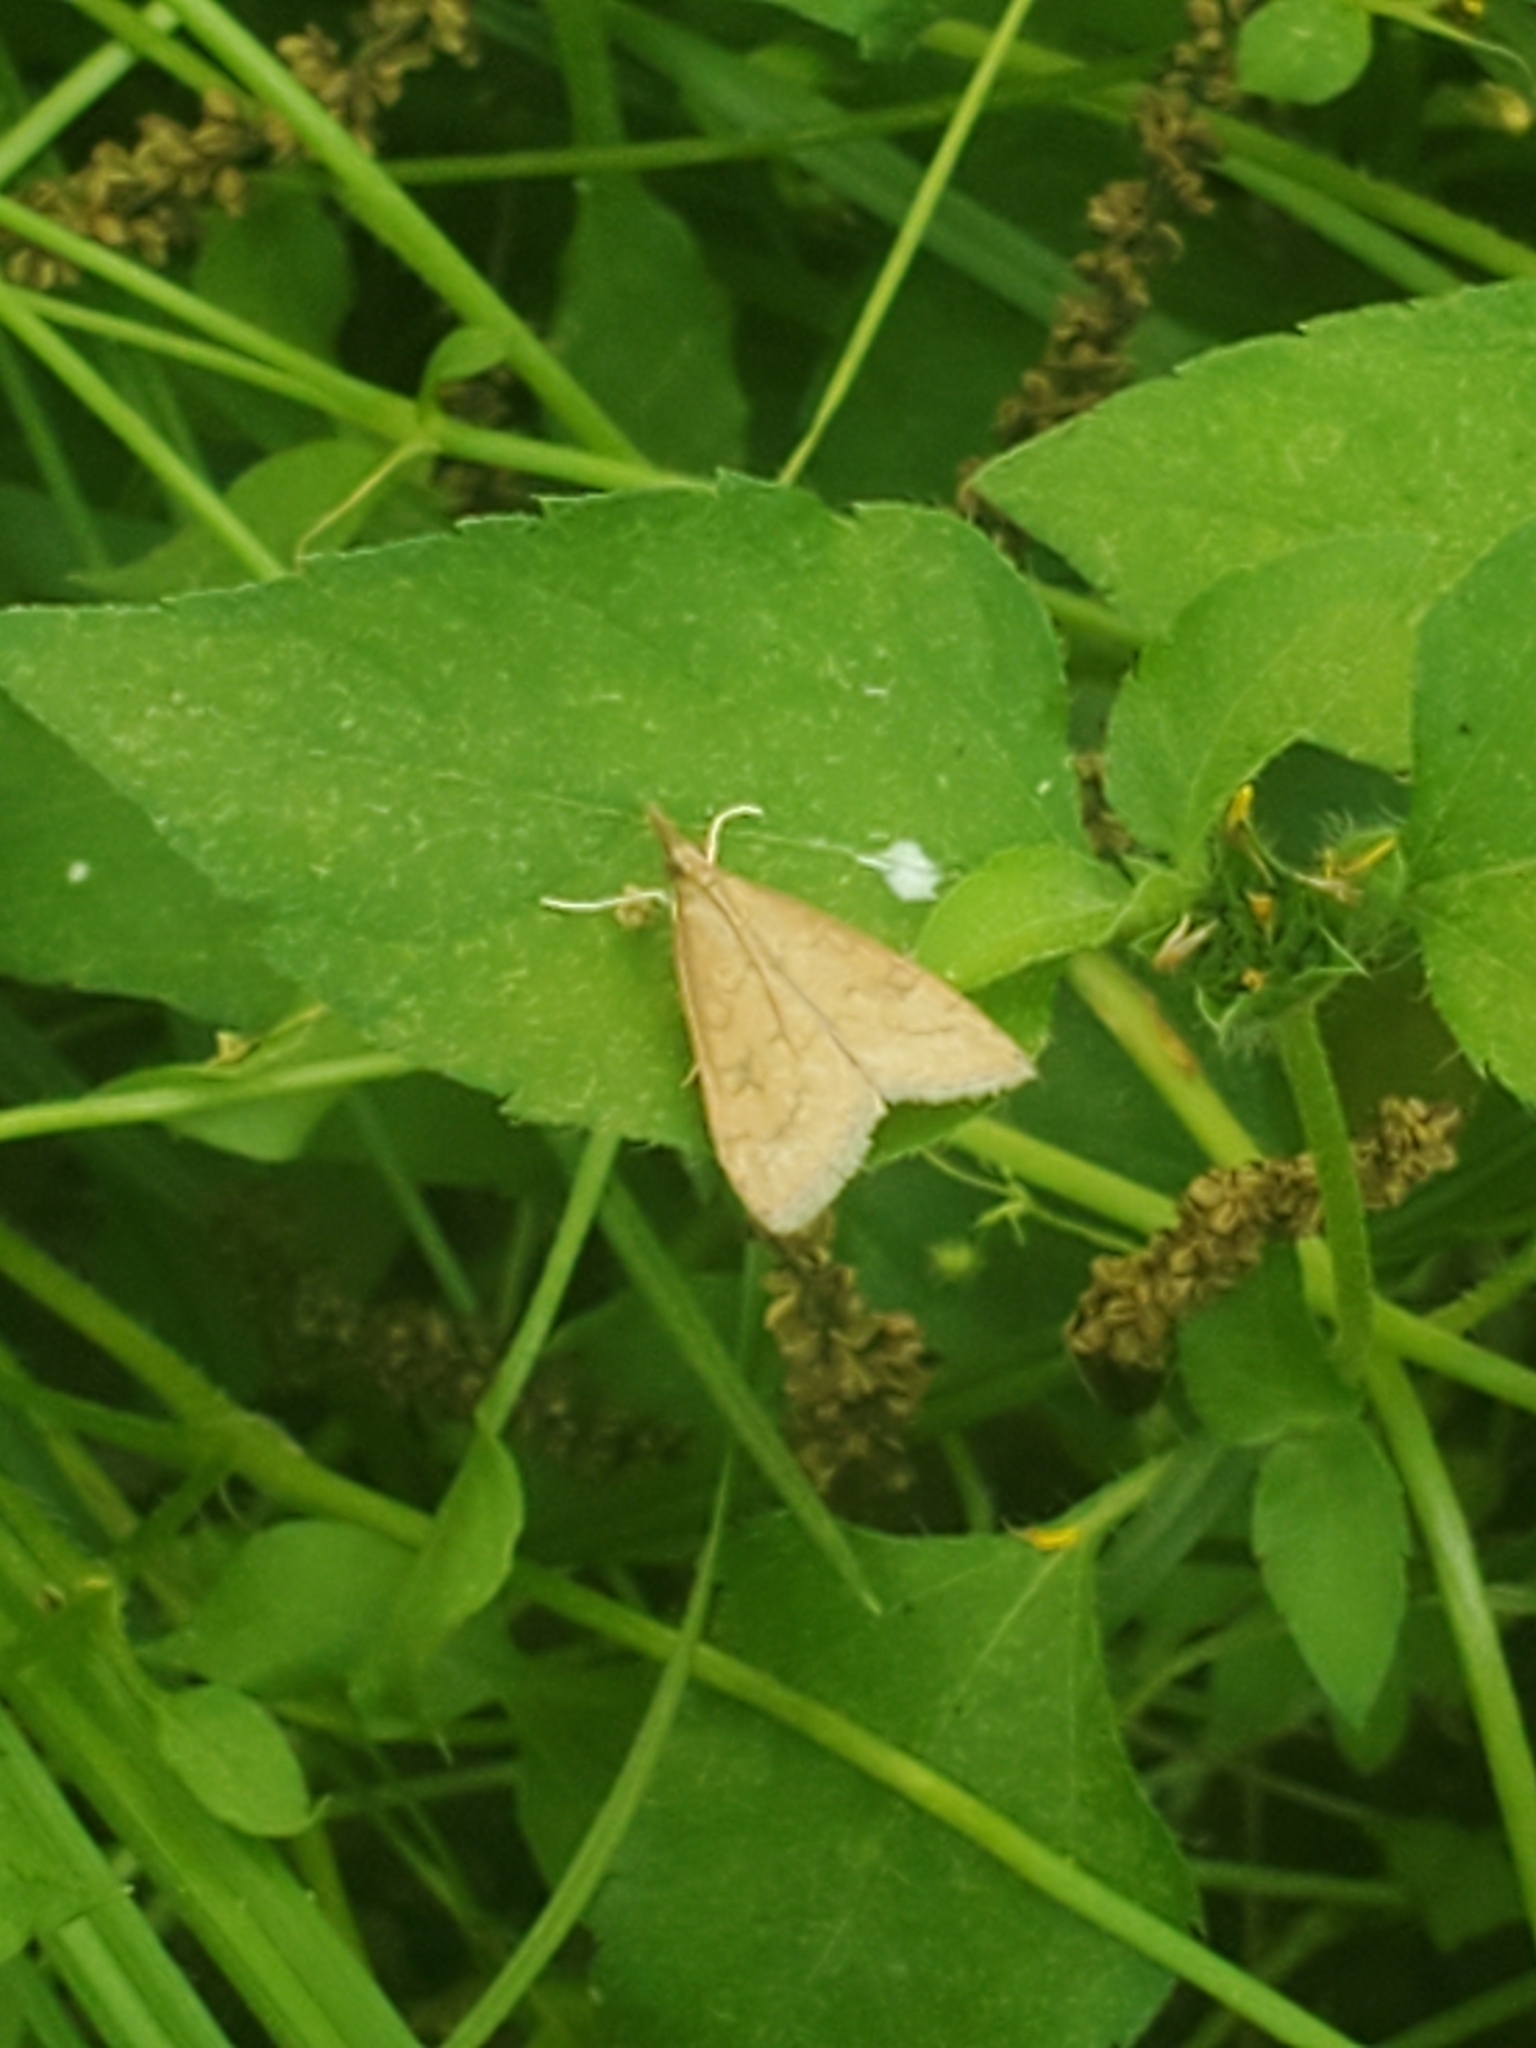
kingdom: Animalia
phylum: Arthropoda
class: Insecta
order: Lepidoptera
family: Crambidae
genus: Udea
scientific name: Udea rubigalis
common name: Celery leaftier moth
